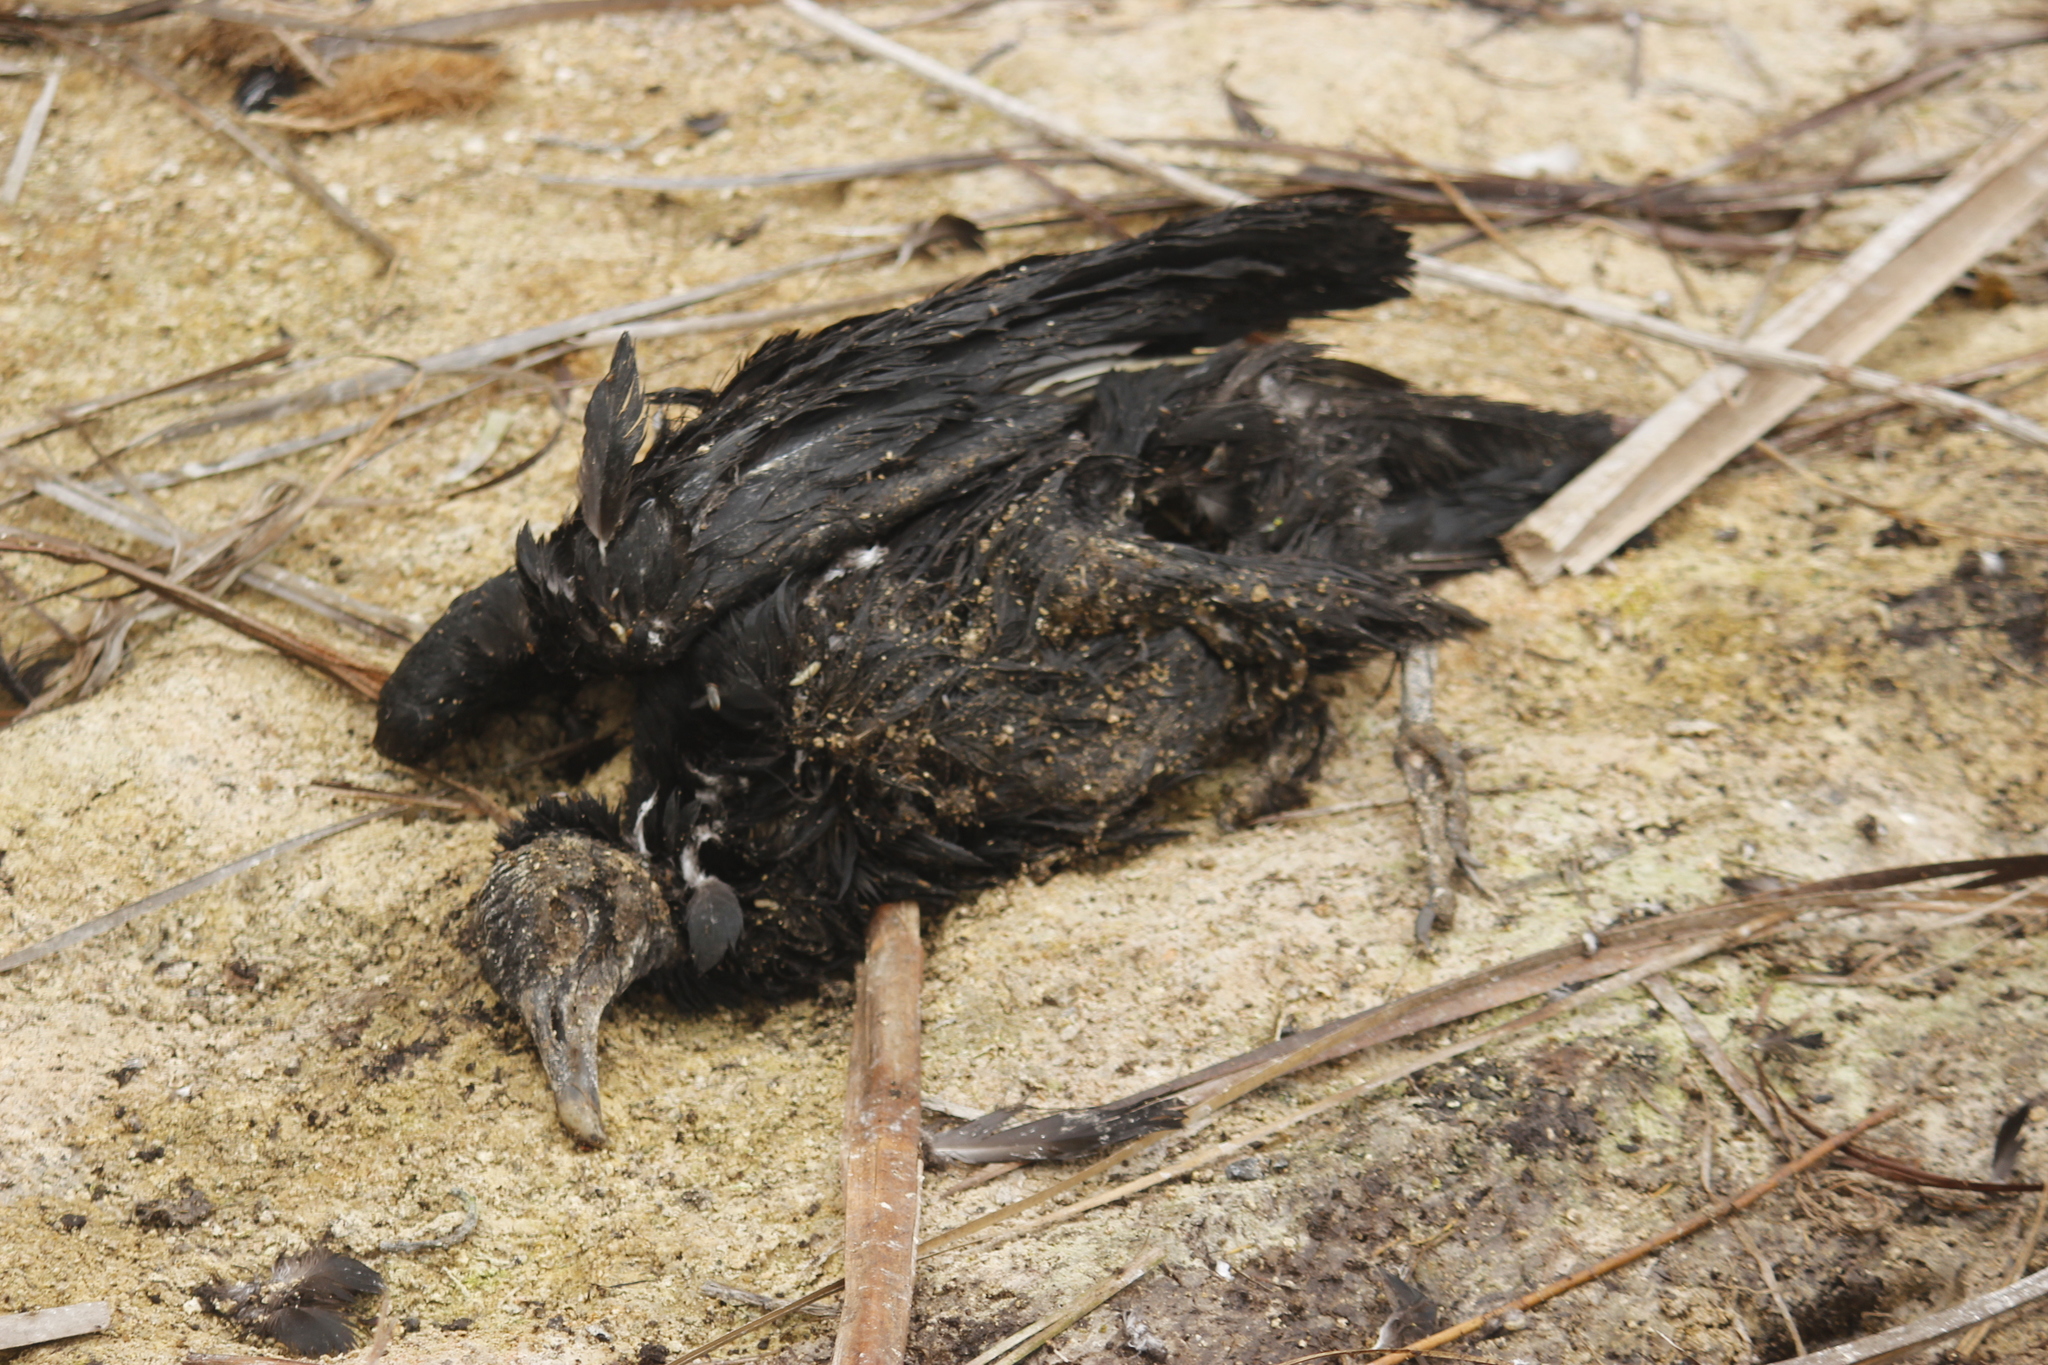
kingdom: Animalia
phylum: Chordata
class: Aves
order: Accipitriformes
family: Cathartidae
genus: Coragyps
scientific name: Coragyps atratus
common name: Black vulture
